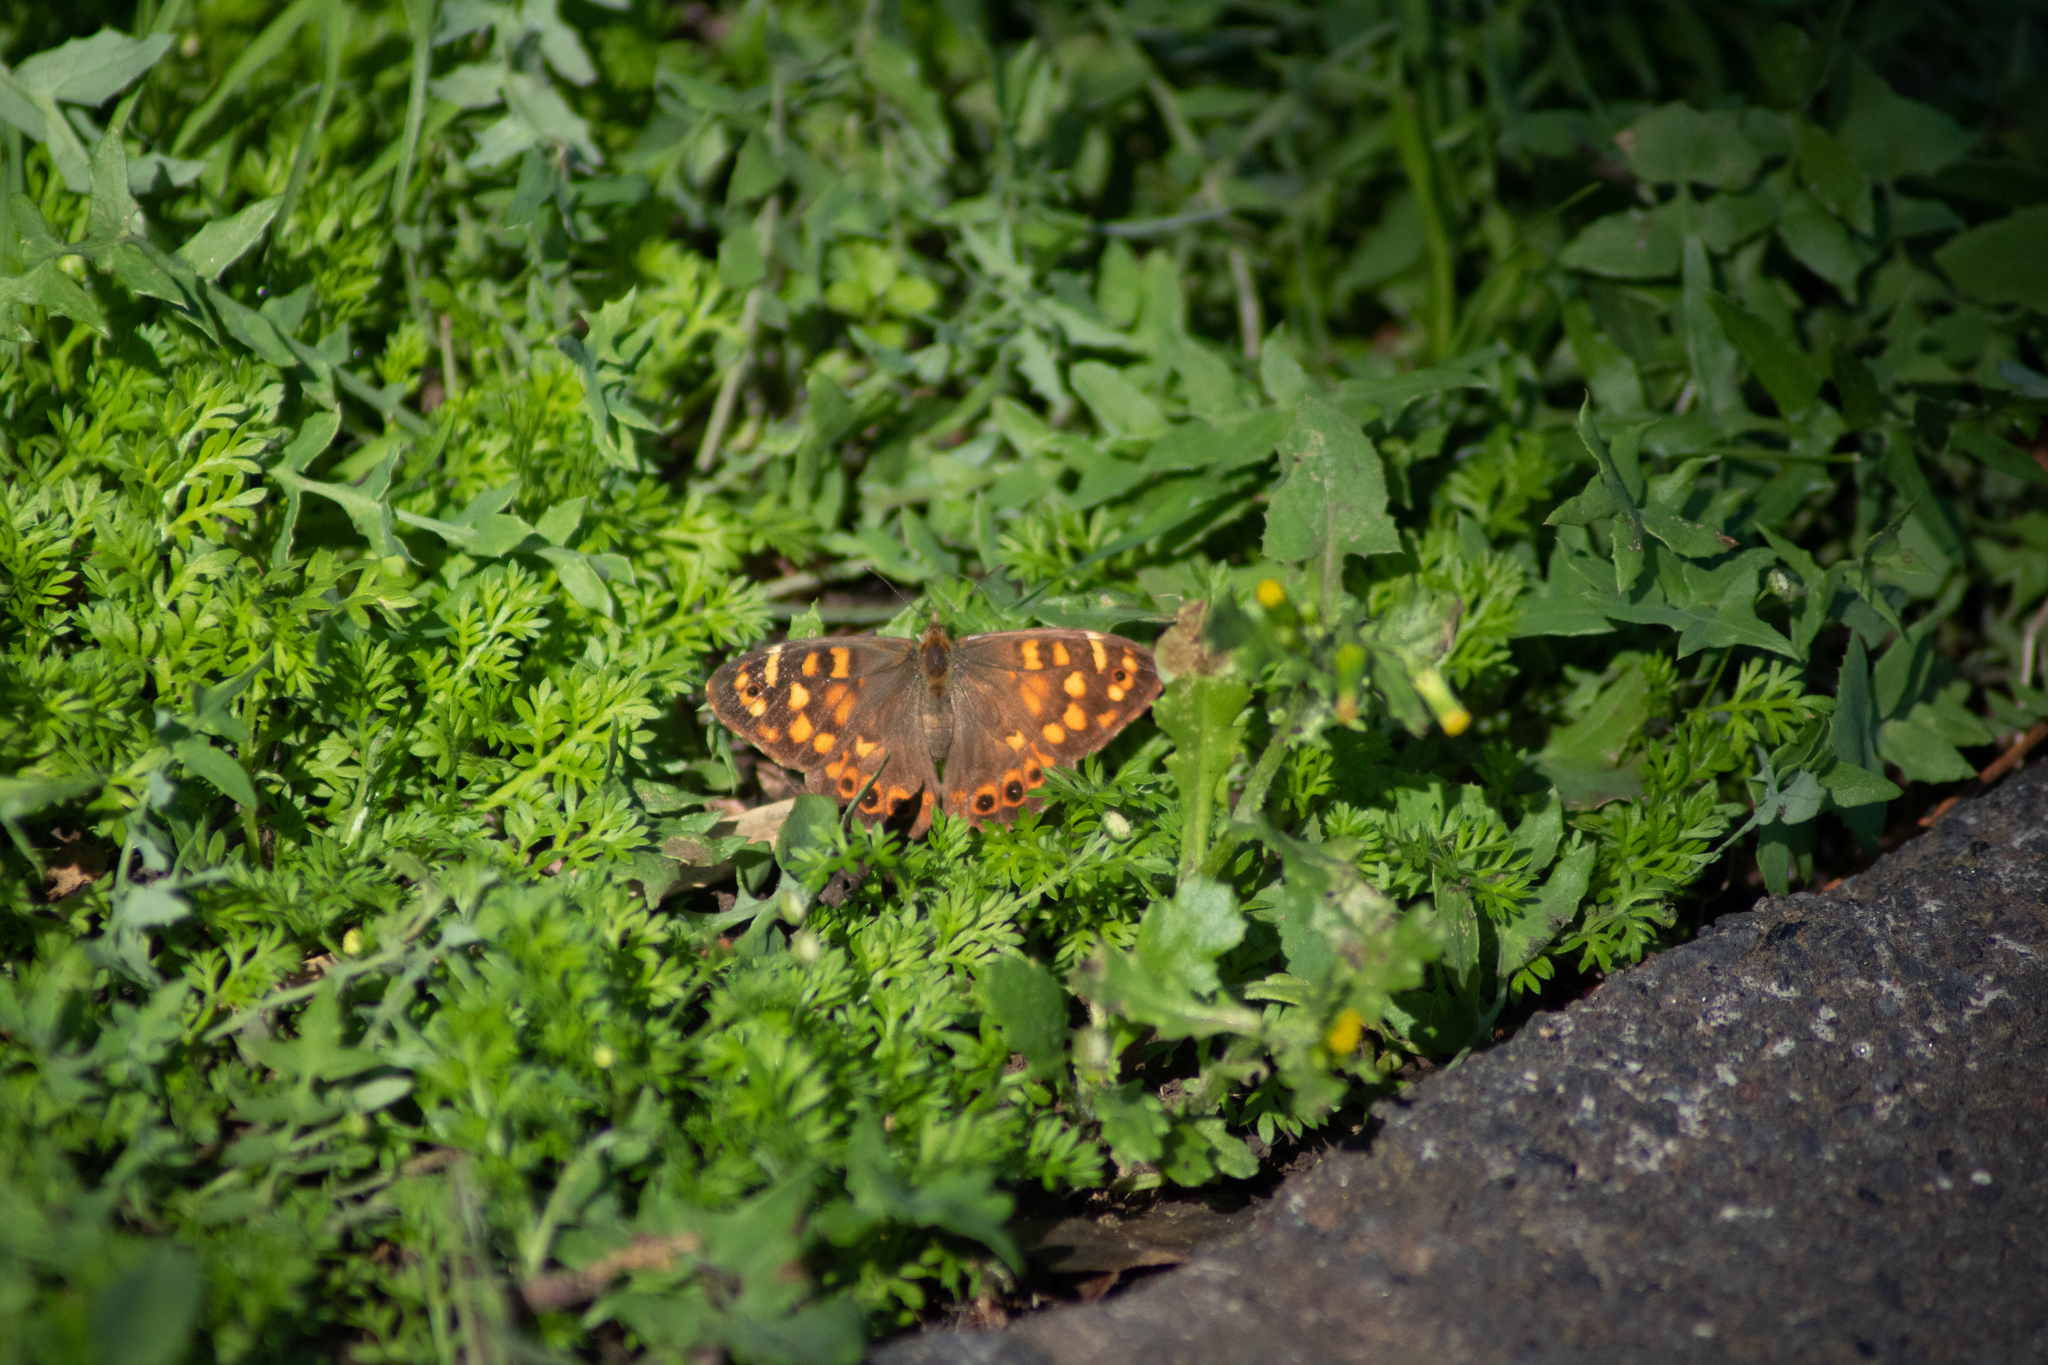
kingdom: Animalia
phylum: Arthropoda
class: Insecta
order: Lepidoptera
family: Nymphalidae
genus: Pararge
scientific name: Pararge aegeria
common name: Speckled wood
